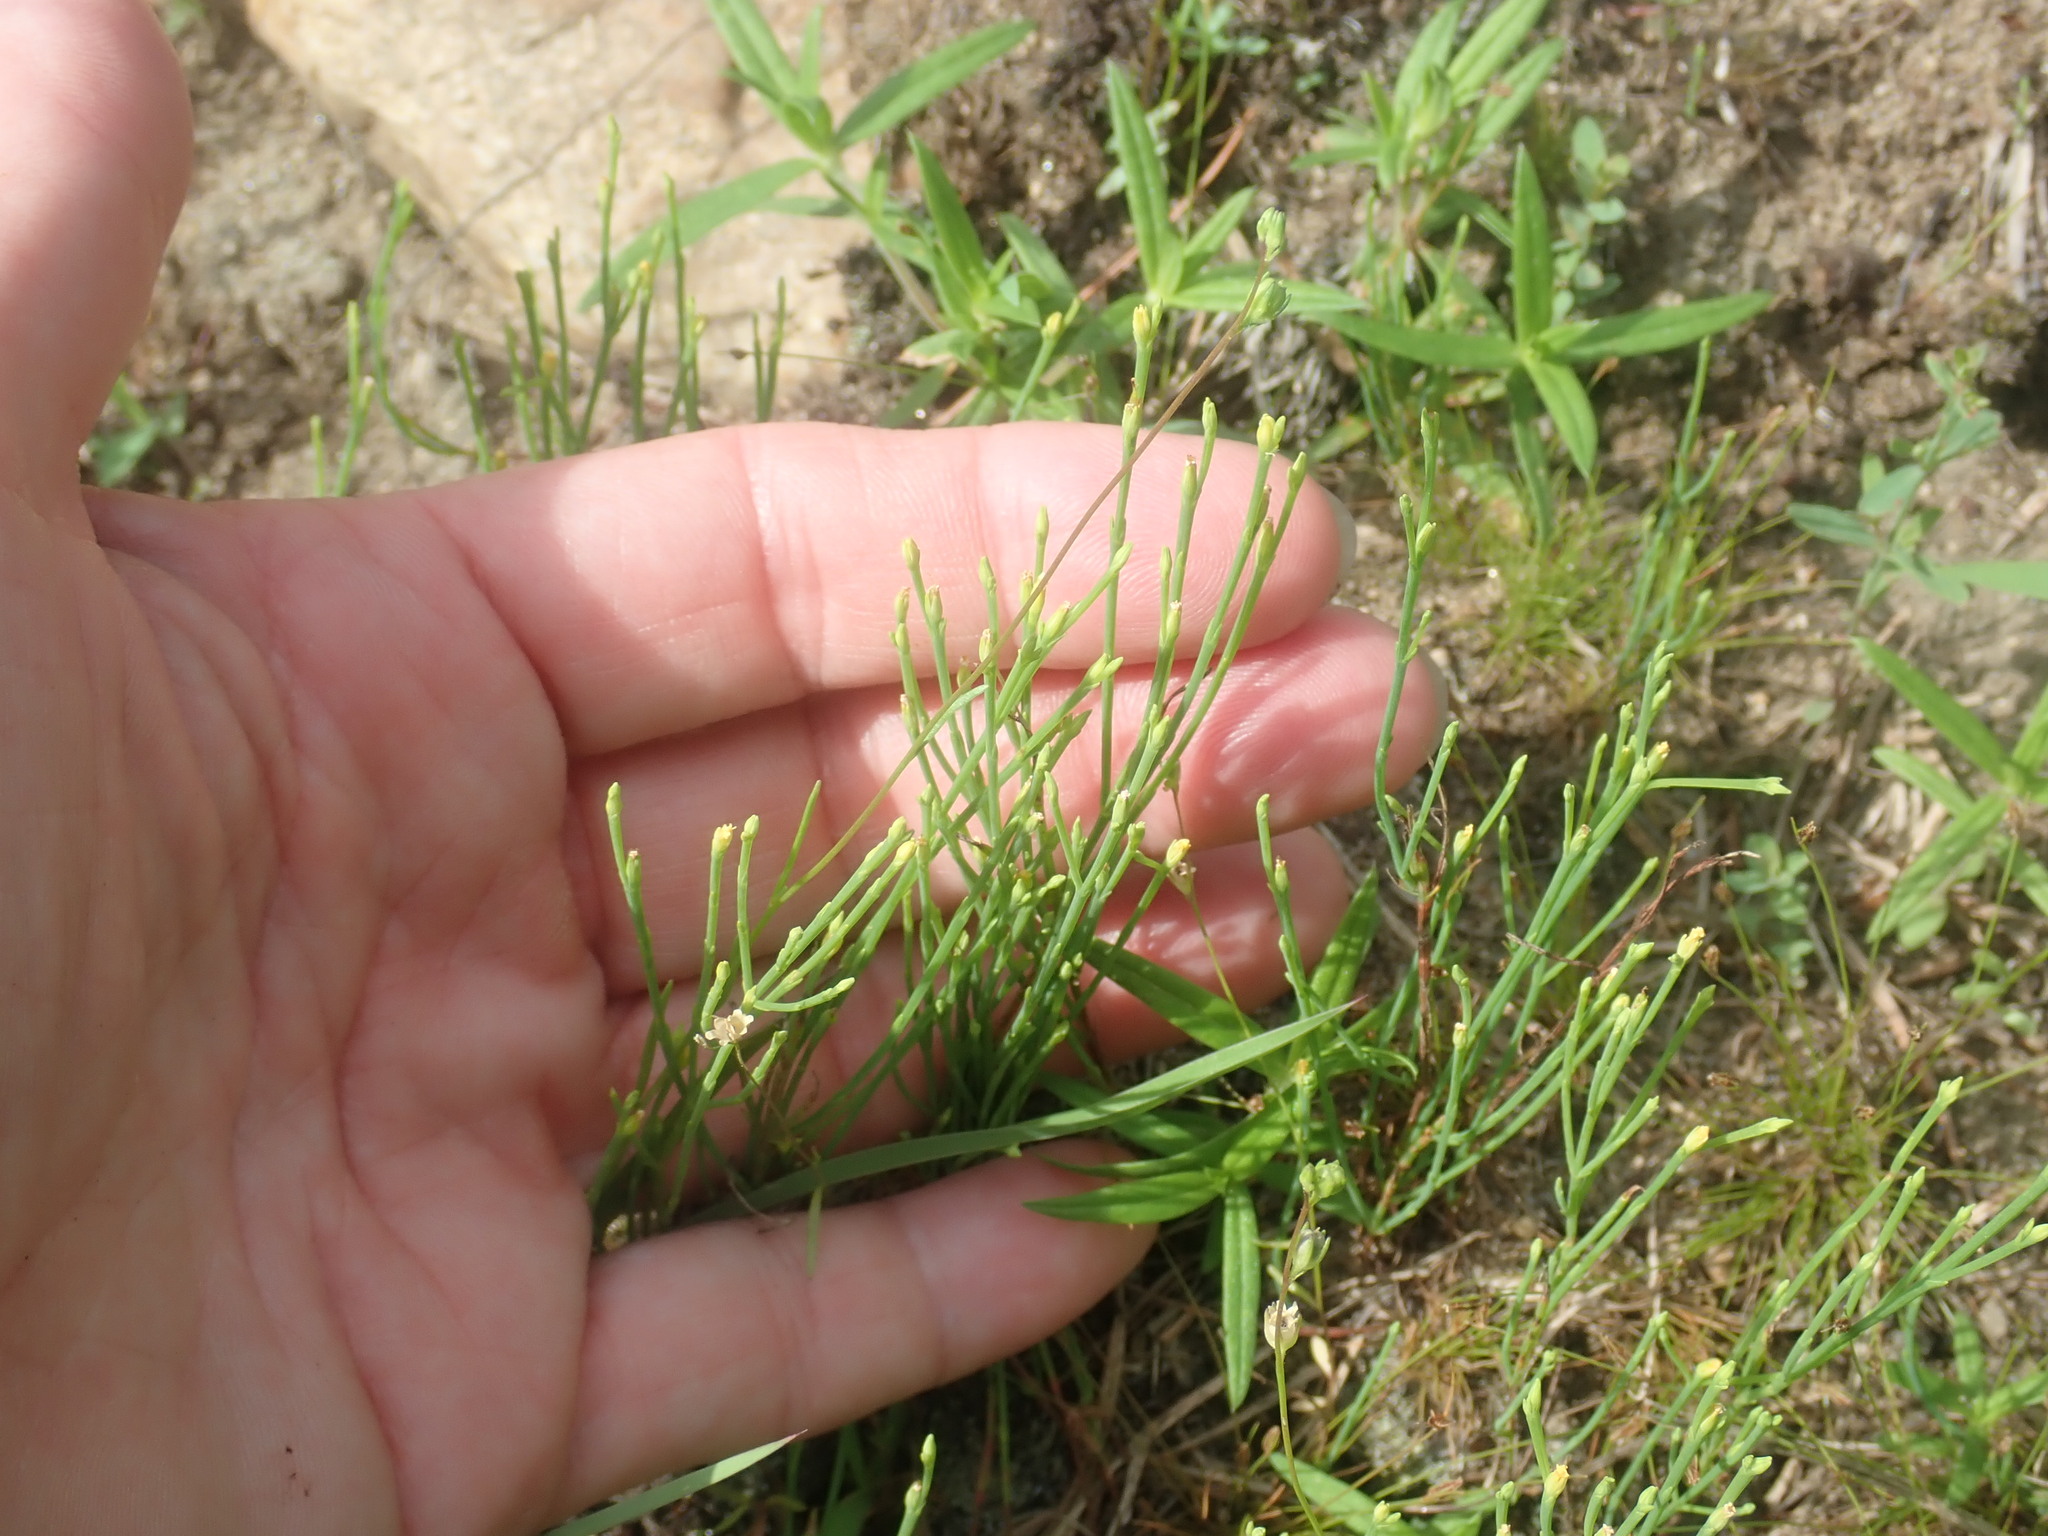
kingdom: Plantae
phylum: Tracheophyta
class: Magnoliopsida
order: Malpighiales
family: Hypericaceae
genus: Hypericum
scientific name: Hypericum gentianoides
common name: Gentian-leaved st. john's-wort
